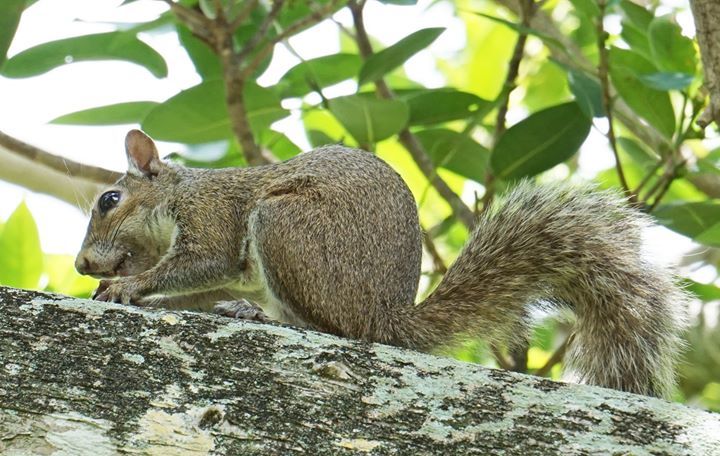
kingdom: Animalia
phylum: Chordata
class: Mammalia
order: Rodentia
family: Sciuridae
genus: Sciurus
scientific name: Sciurus carolinensis
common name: Eastern gray squirrel
